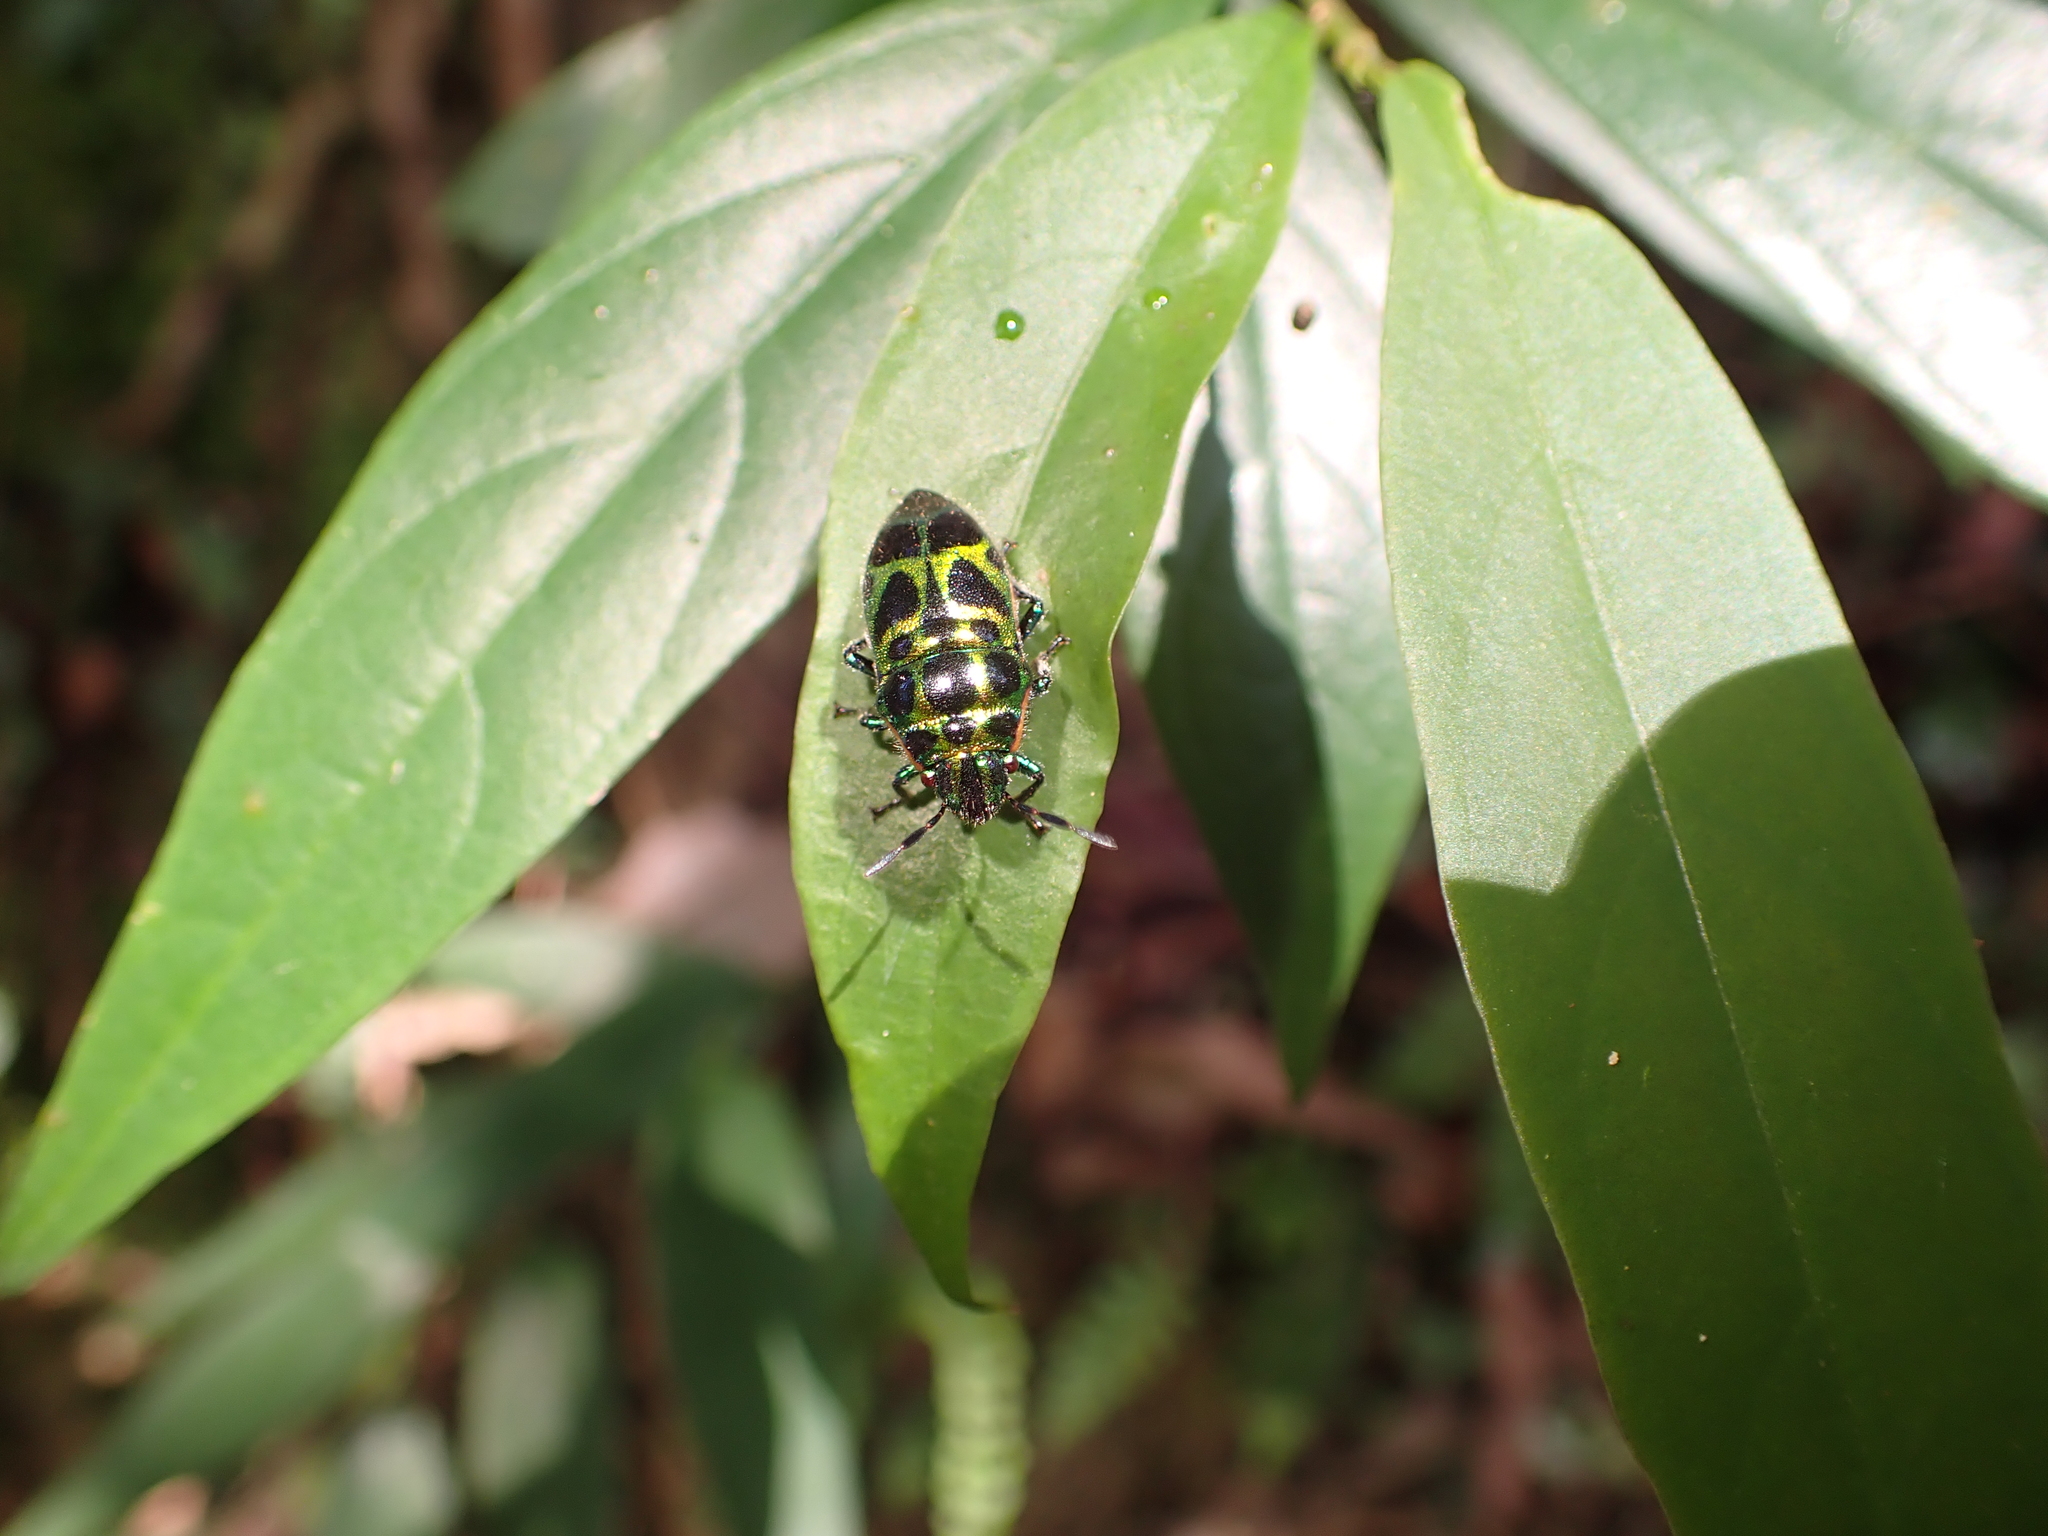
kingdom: Animalia
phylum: Arthropoda
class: Insecta
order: Hemiptera
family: Scutelleridae
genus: Brachyaulax
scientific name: Brachyaulax cyaneovitta
